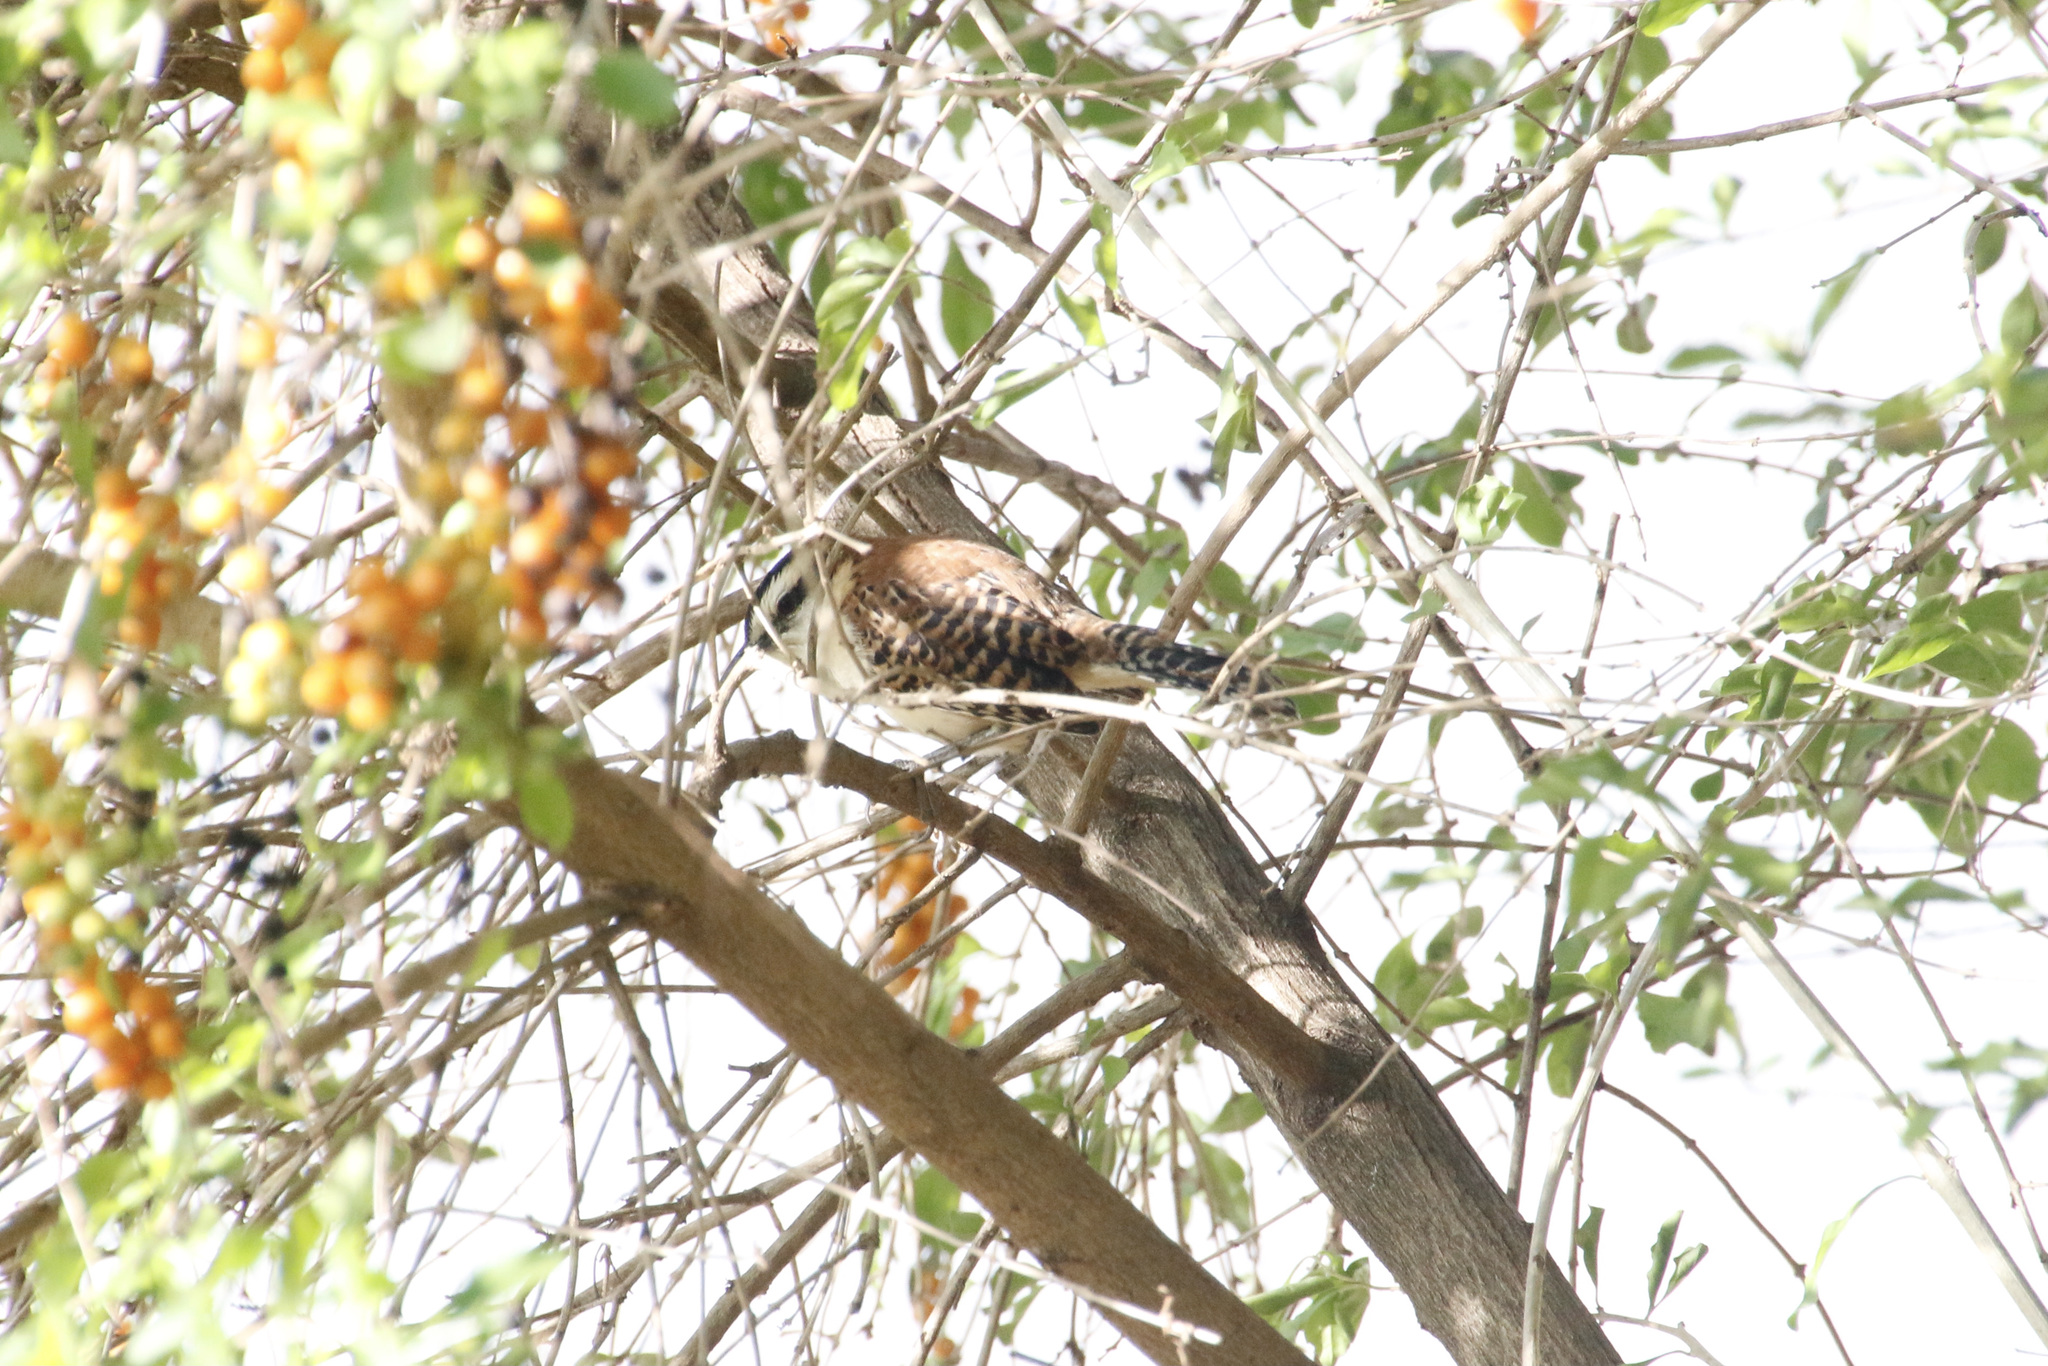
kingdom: Animalia
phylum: Chordata
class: Aves
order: Passeriformes
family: Troglodytidae
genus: Campylorhynchus
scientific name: Campylorhynchus rufinucha
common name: Rufous-naped wren
